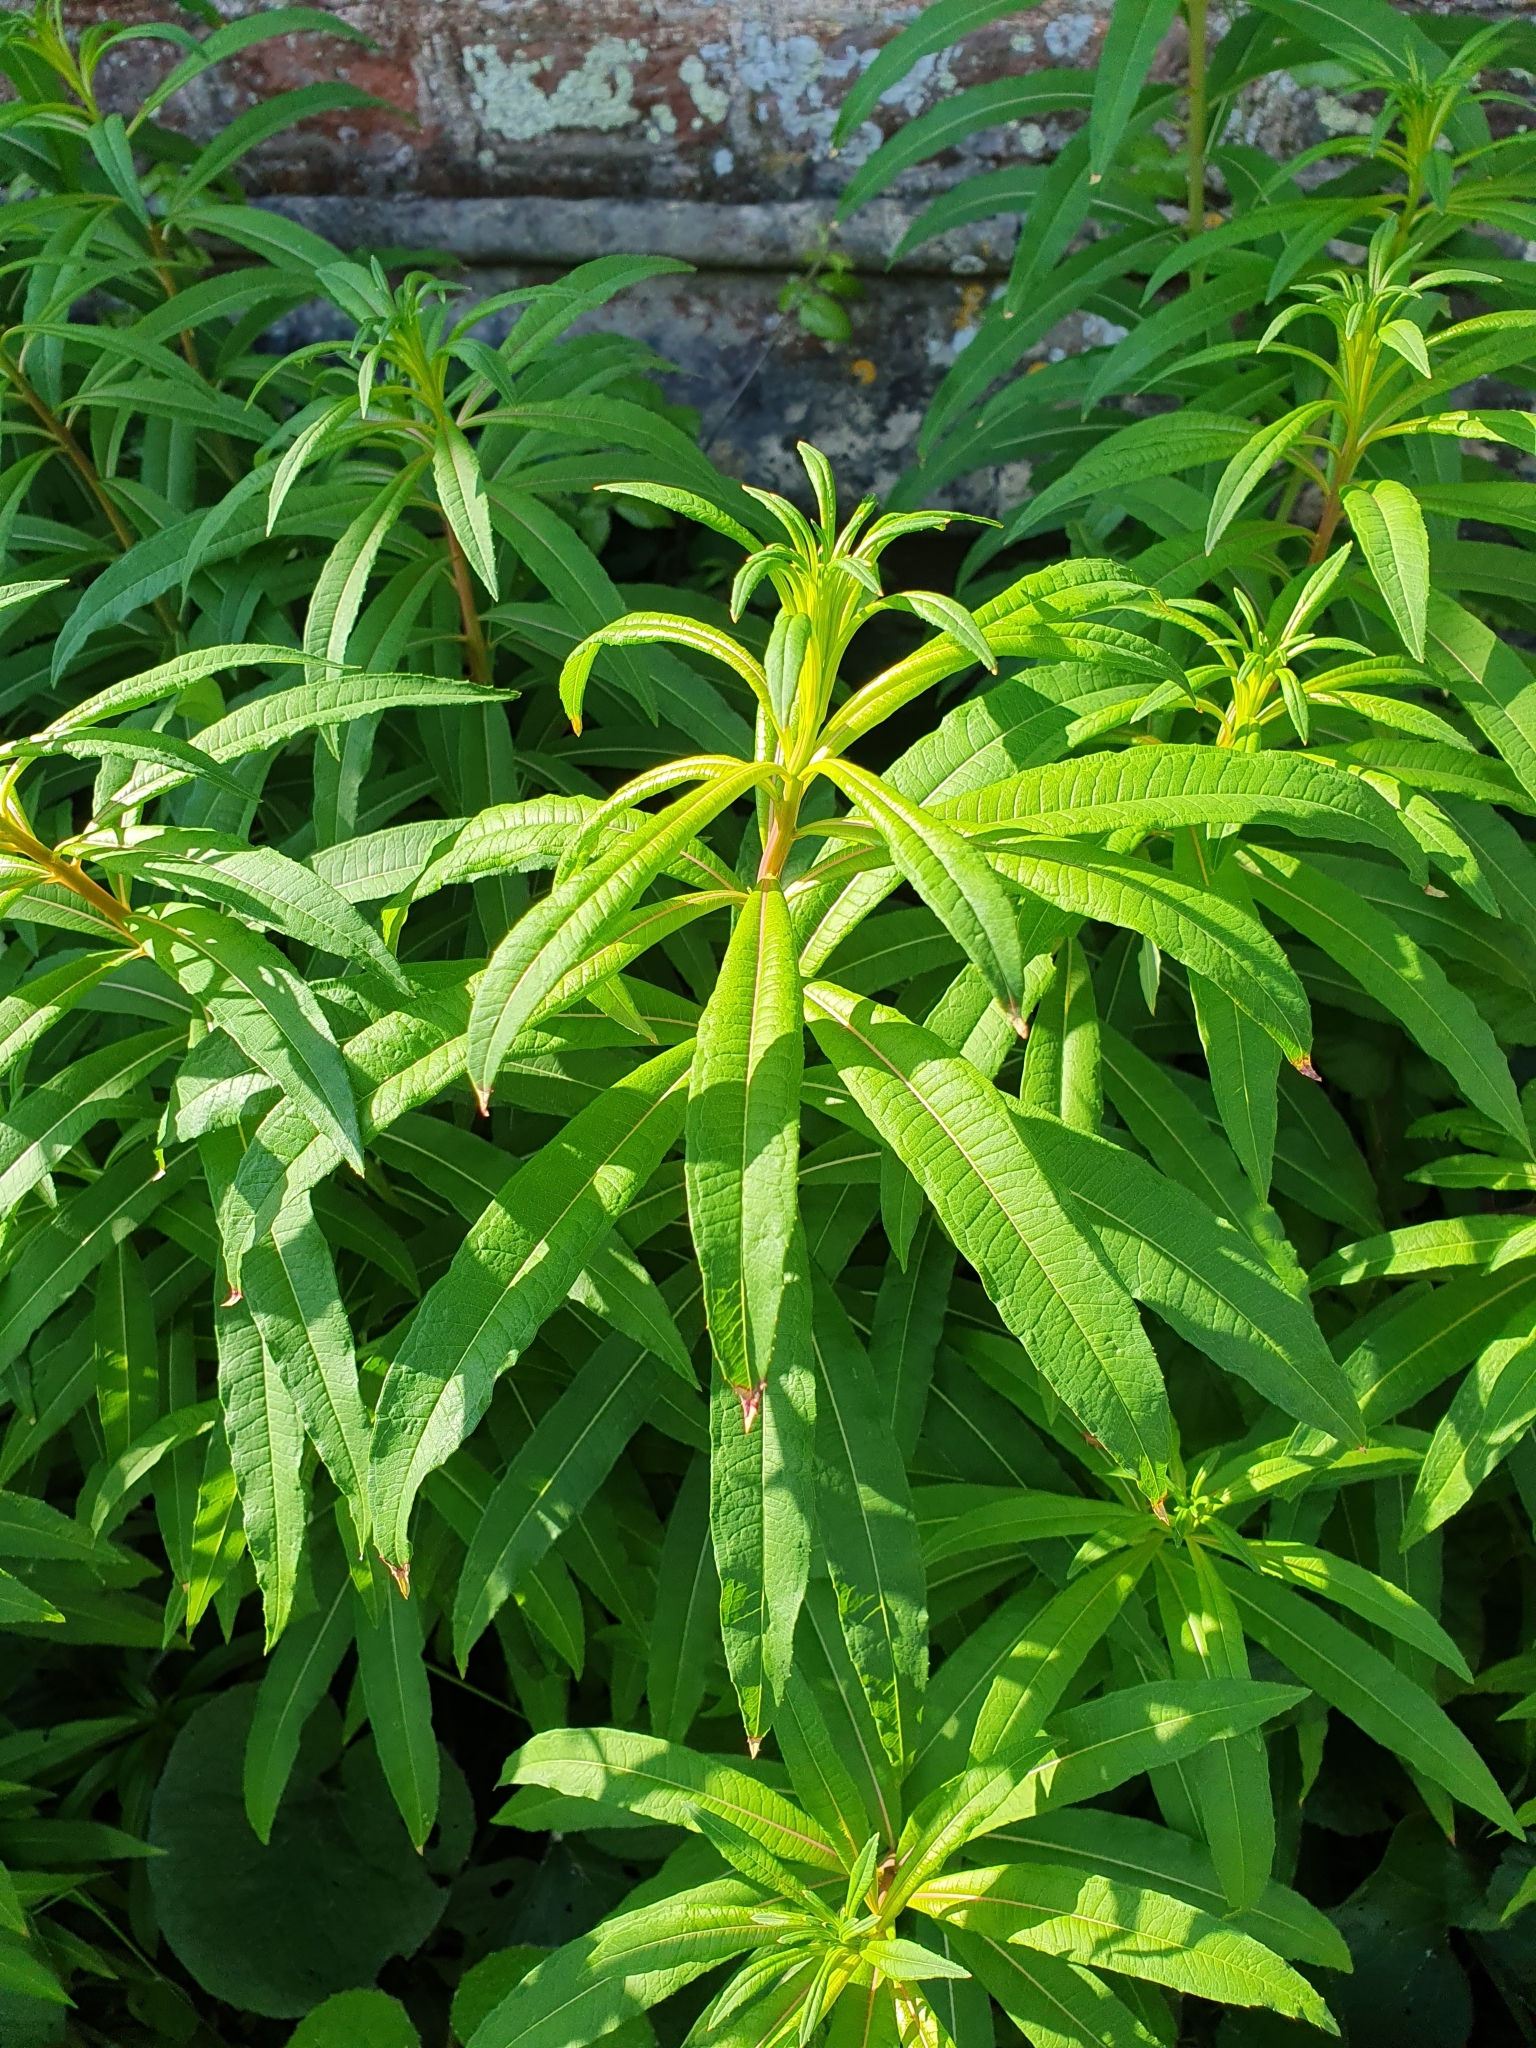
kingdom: Plantae
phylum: Tracheophyta
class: Magnoliopsida
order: Myrtales
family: Onagraceae
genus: Chamaenerion
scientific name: Chamaenerion angustifolium
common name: Fireweed
